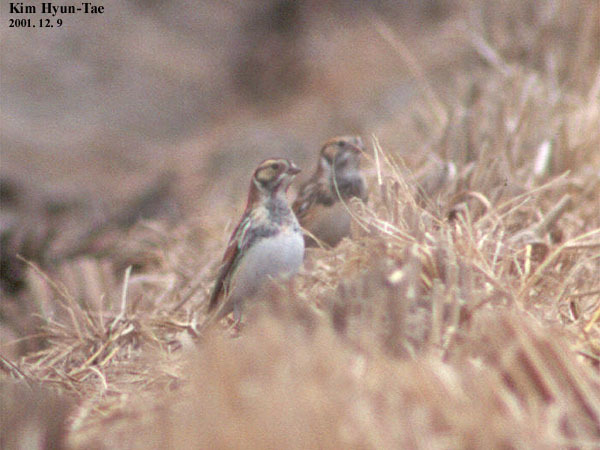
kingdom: Animalia
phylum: Chordata
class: Aves
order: Passeriformes
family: Calcariidae
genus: Calcarius
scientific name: Calcarius lapponicus
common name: Lapland longspur
